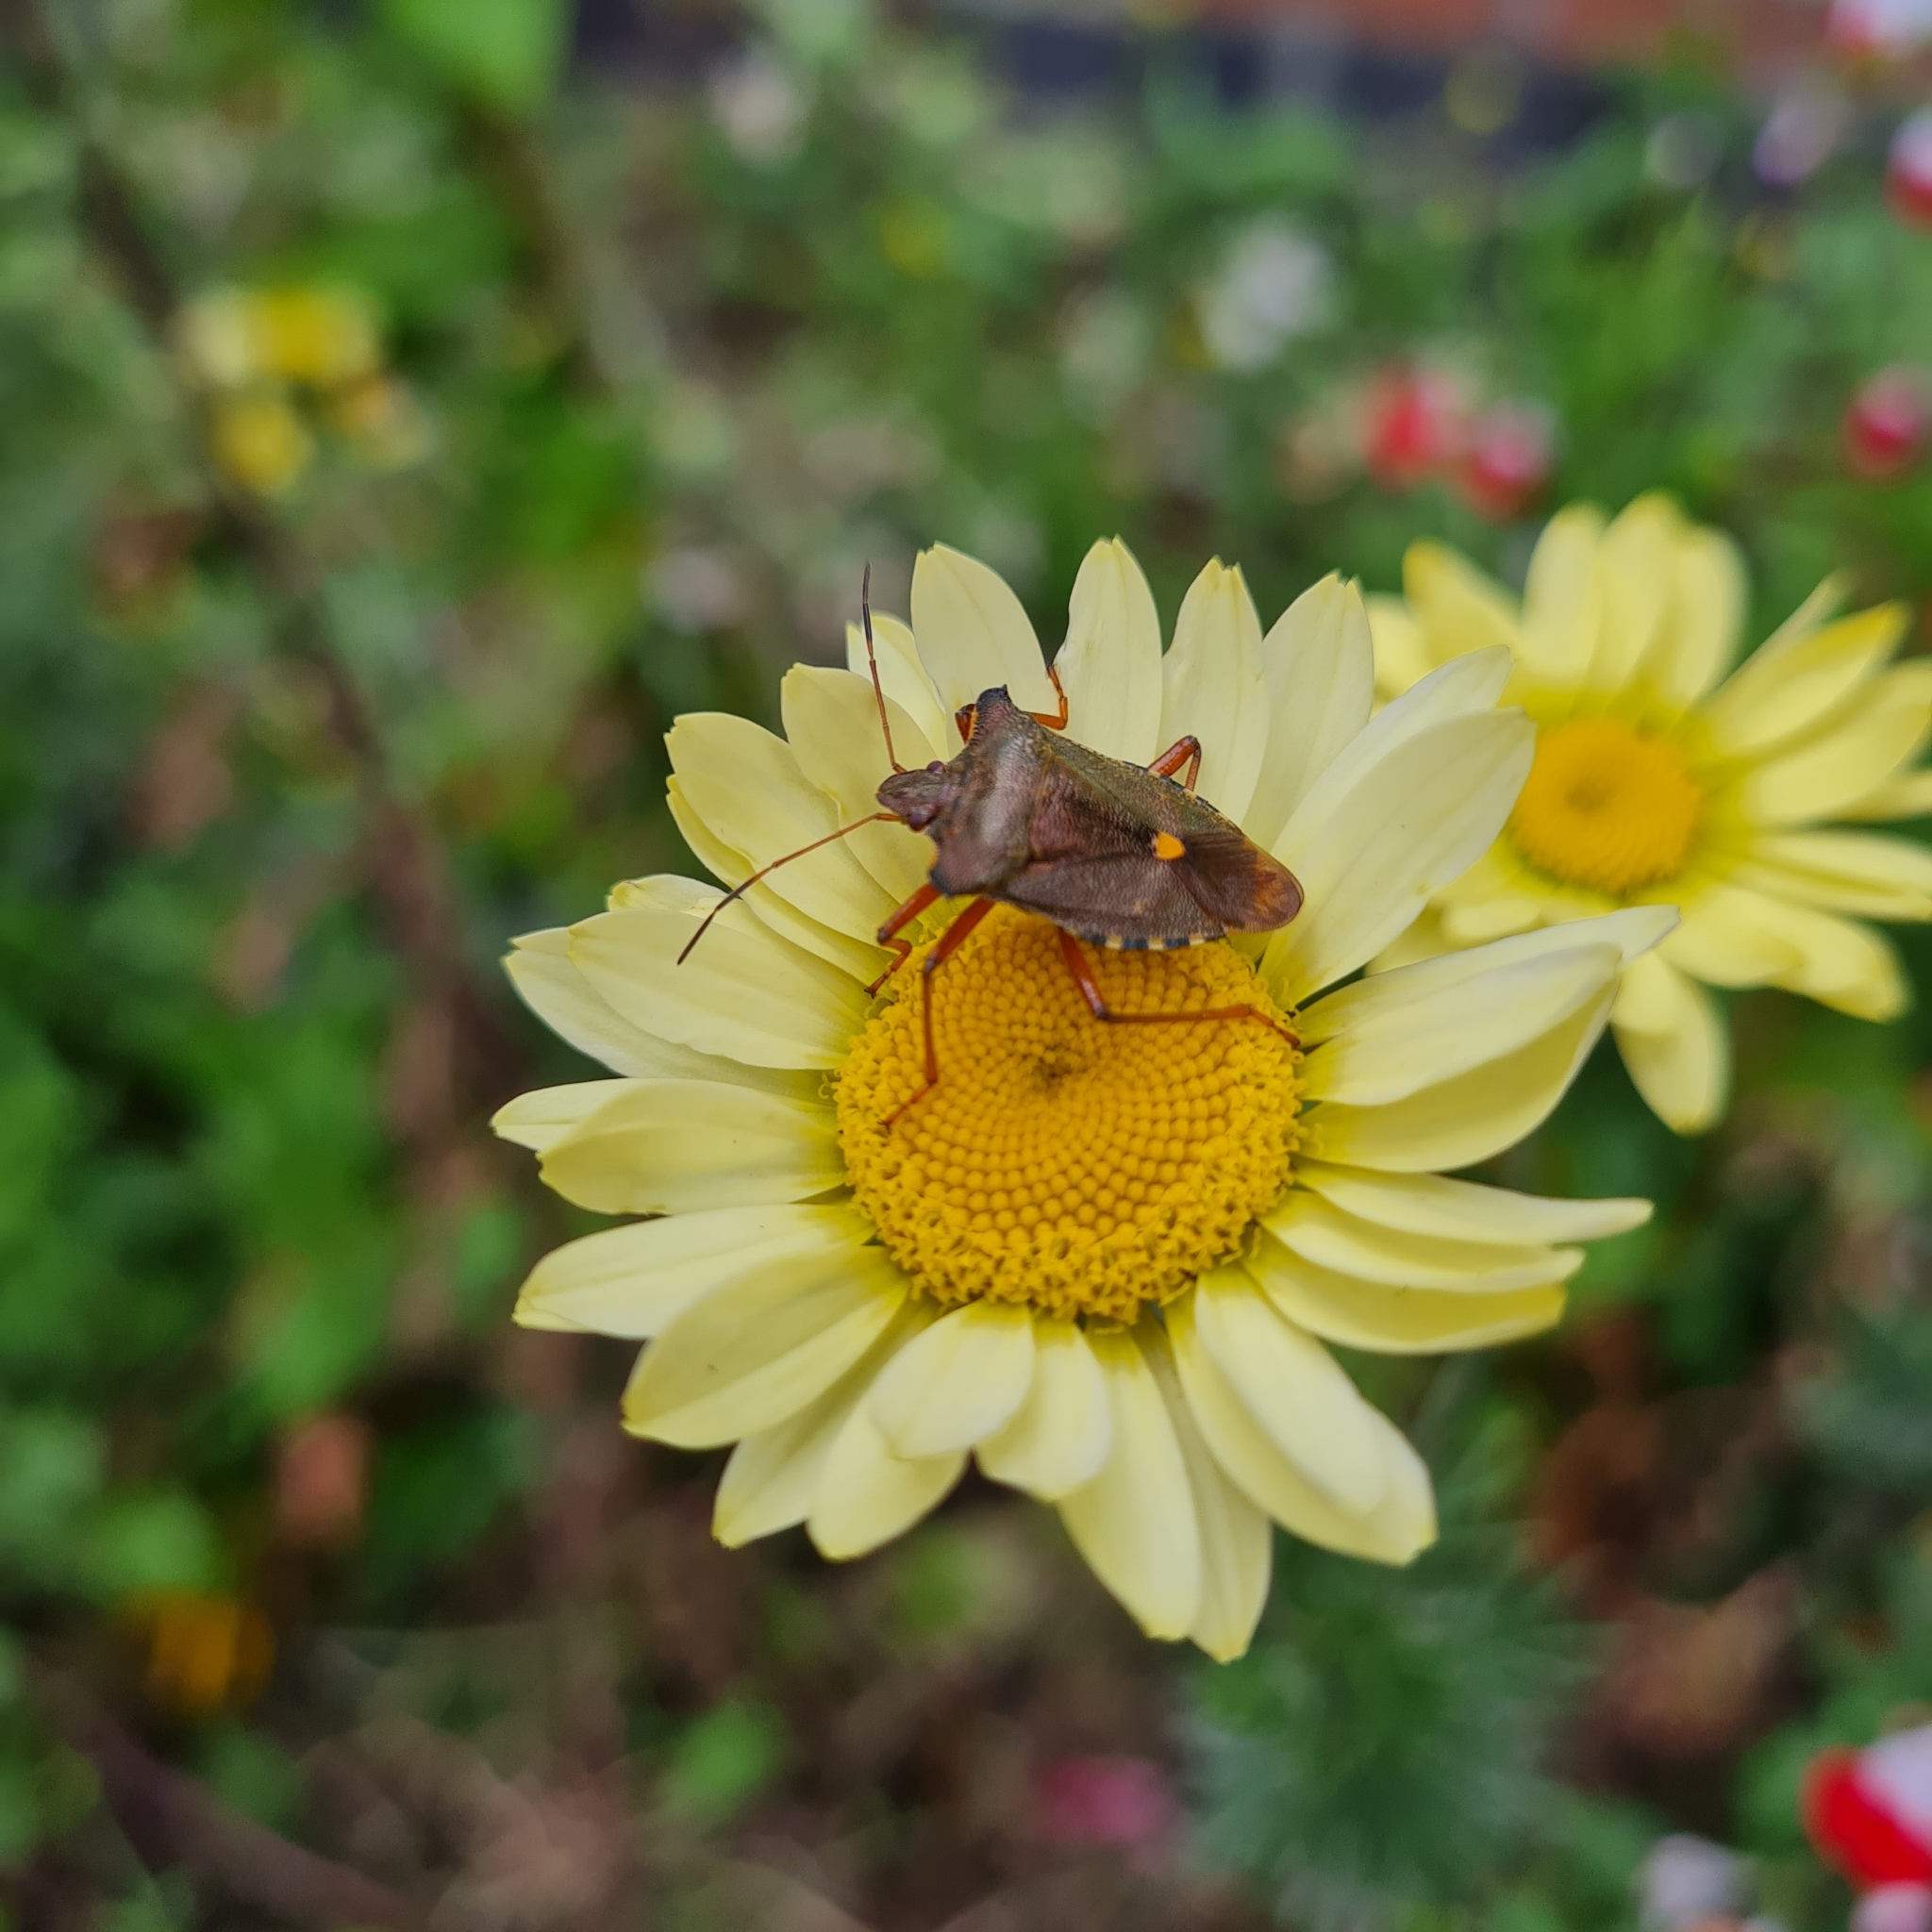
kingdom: Animalia
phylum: Arthropoda
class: Insecta
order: Hemiptera
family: Pentatomidae
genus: Pentatoma
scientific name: Pentatoma rufipes
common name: Forest bug
